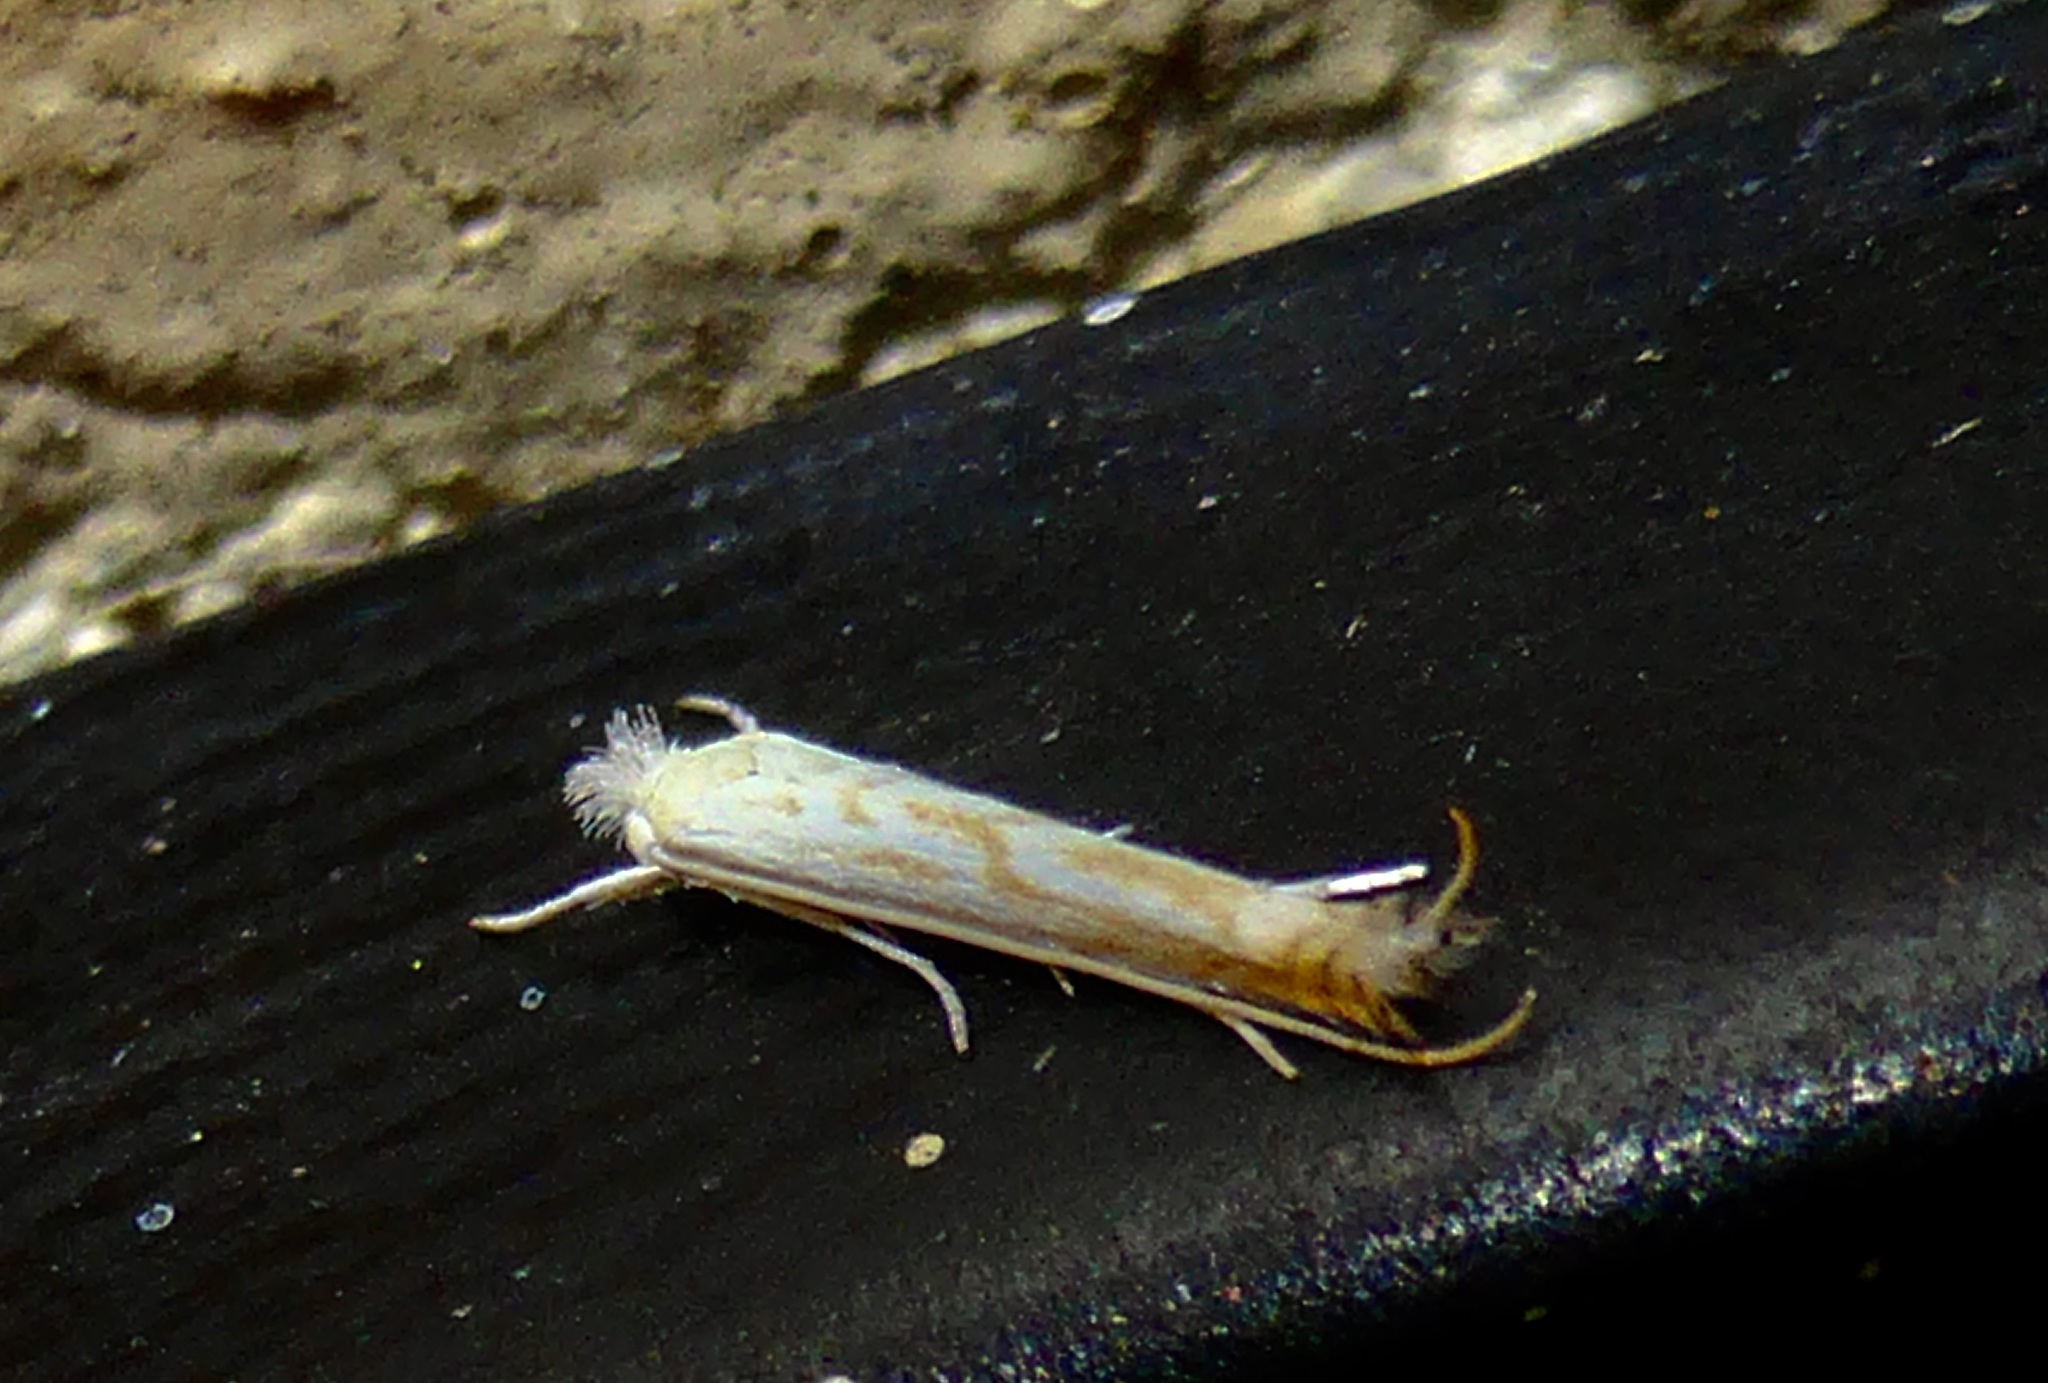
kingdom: Animalia
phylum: Arthropoda
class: Insecta
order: Lepidoptera
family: Lyonetiidae
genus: Stegommata
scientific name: Stegommata sulfuratella
